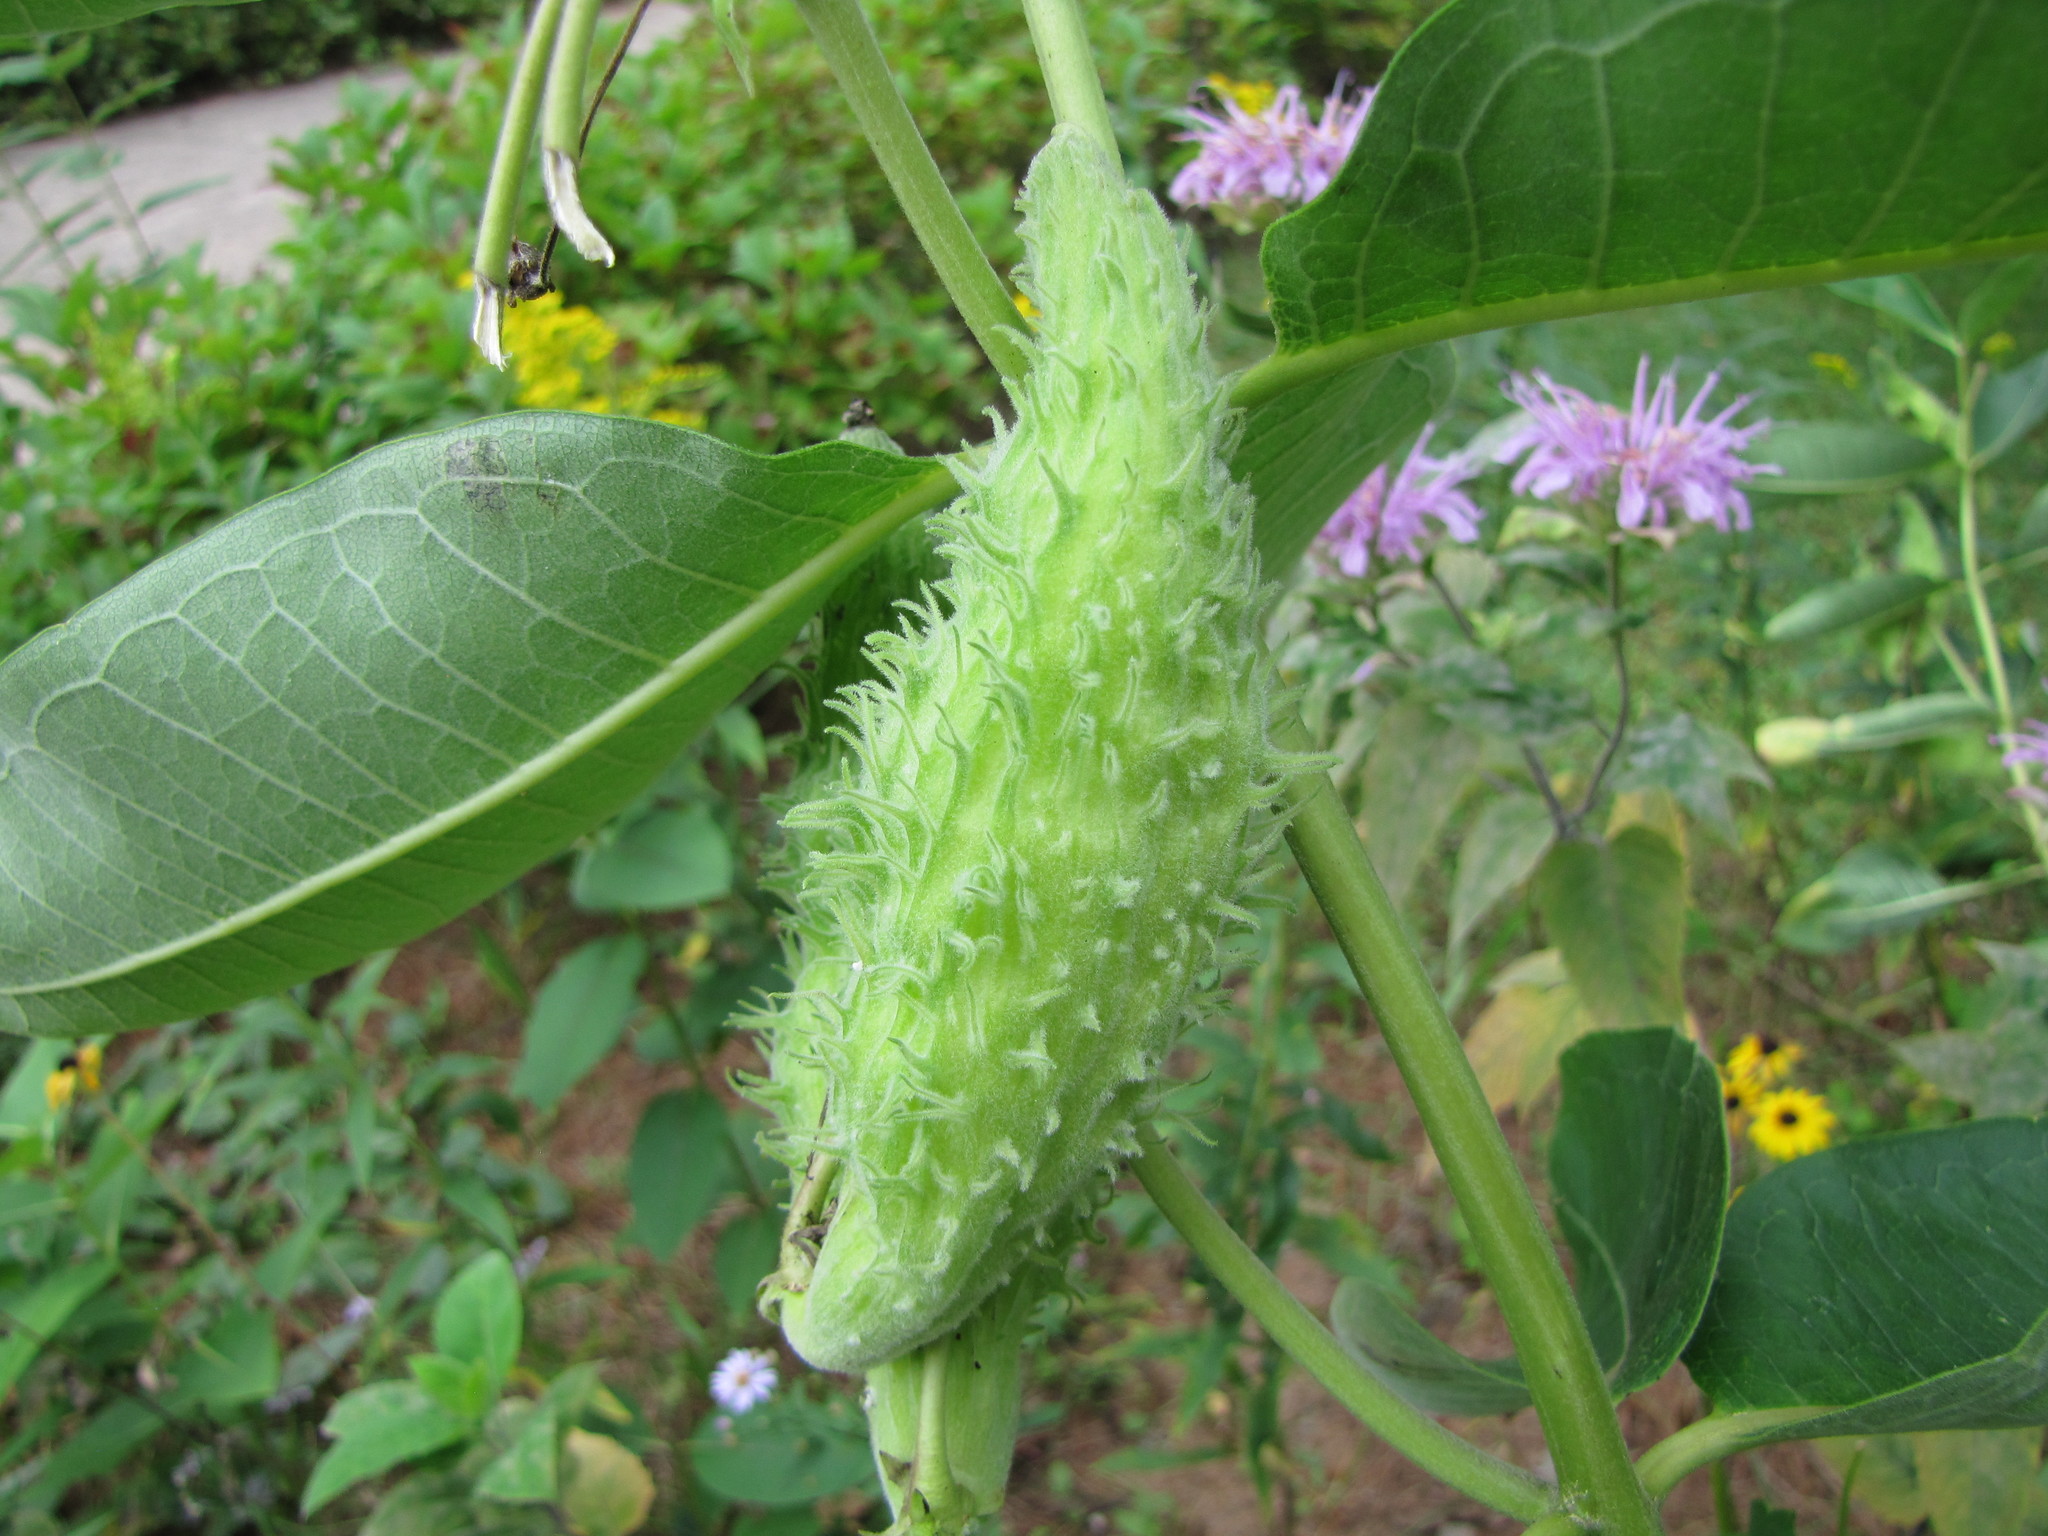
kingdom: Plantae
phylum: Tracheophyta
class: Magnoliopsida
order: Gentianales
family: Apocynaceae
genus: Asclepias
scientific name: Asclepias syriaca
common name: Common milkweed
